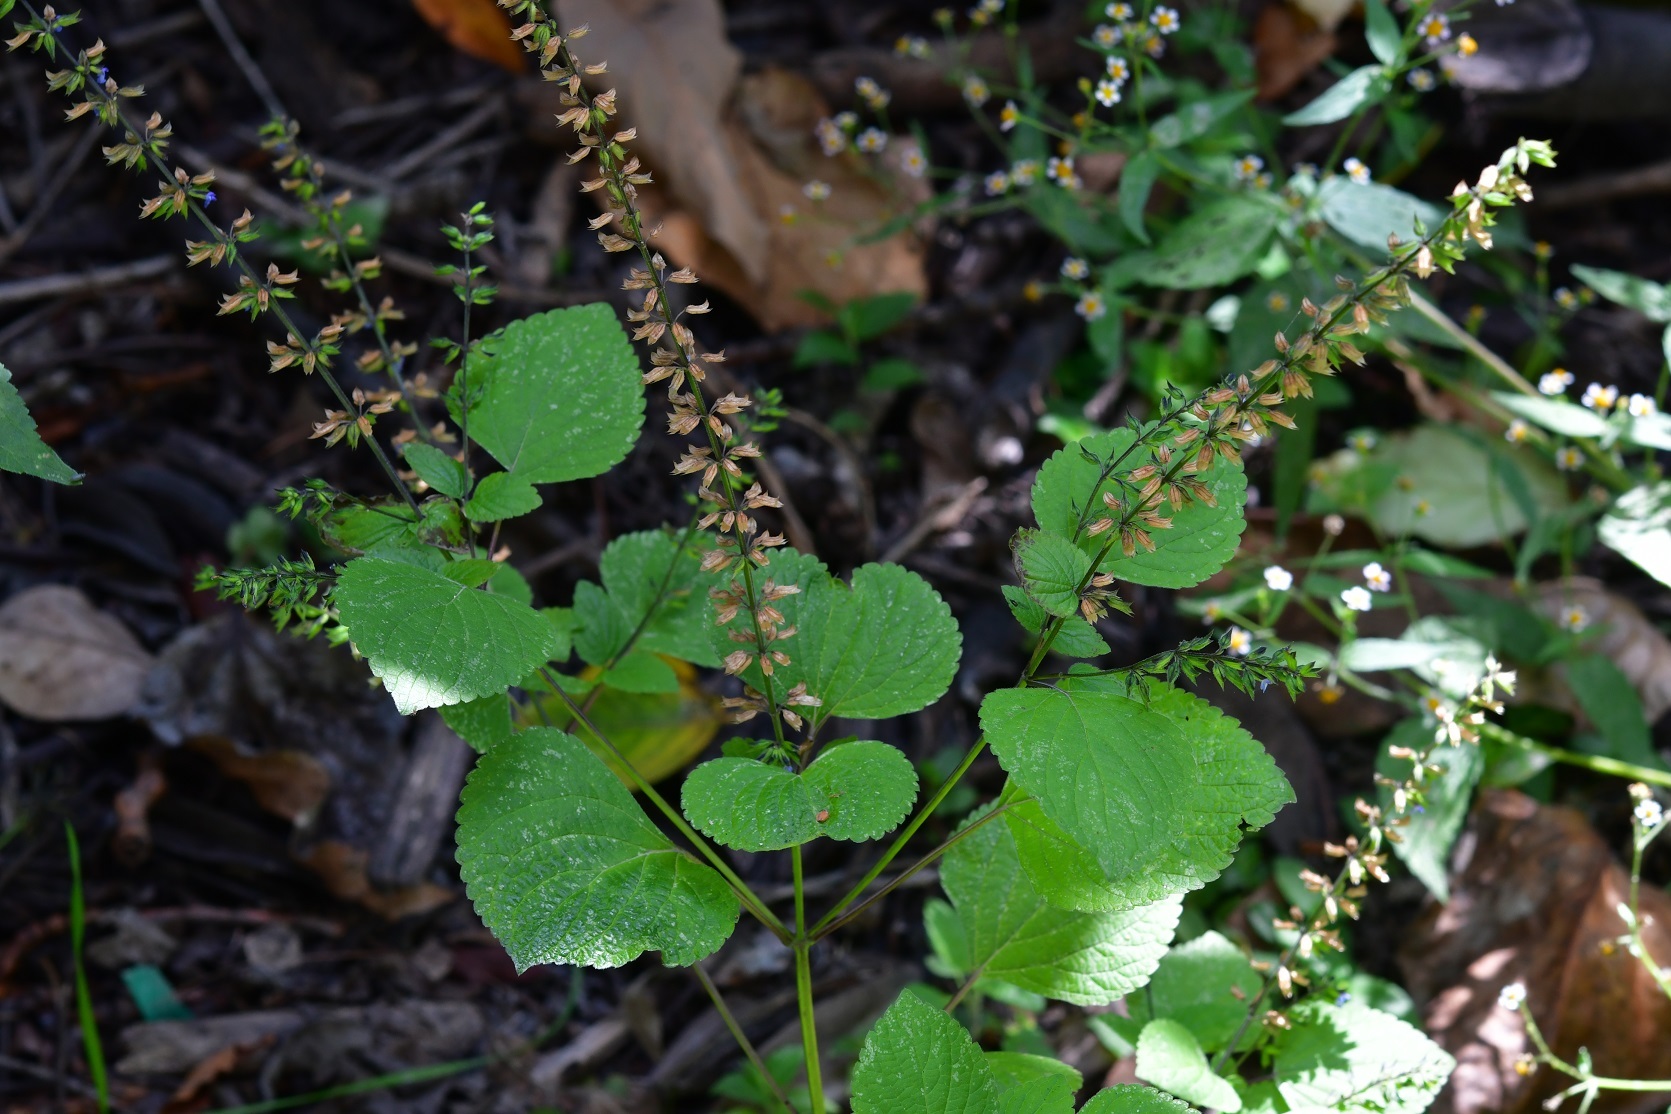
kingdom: Plantae
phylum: Tracheophyta
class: Magnoliopsida
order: Lamiales
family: Lamiaceae
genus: Salvia
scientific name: Salvia tiliifolia
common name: Lindenleaf sage
